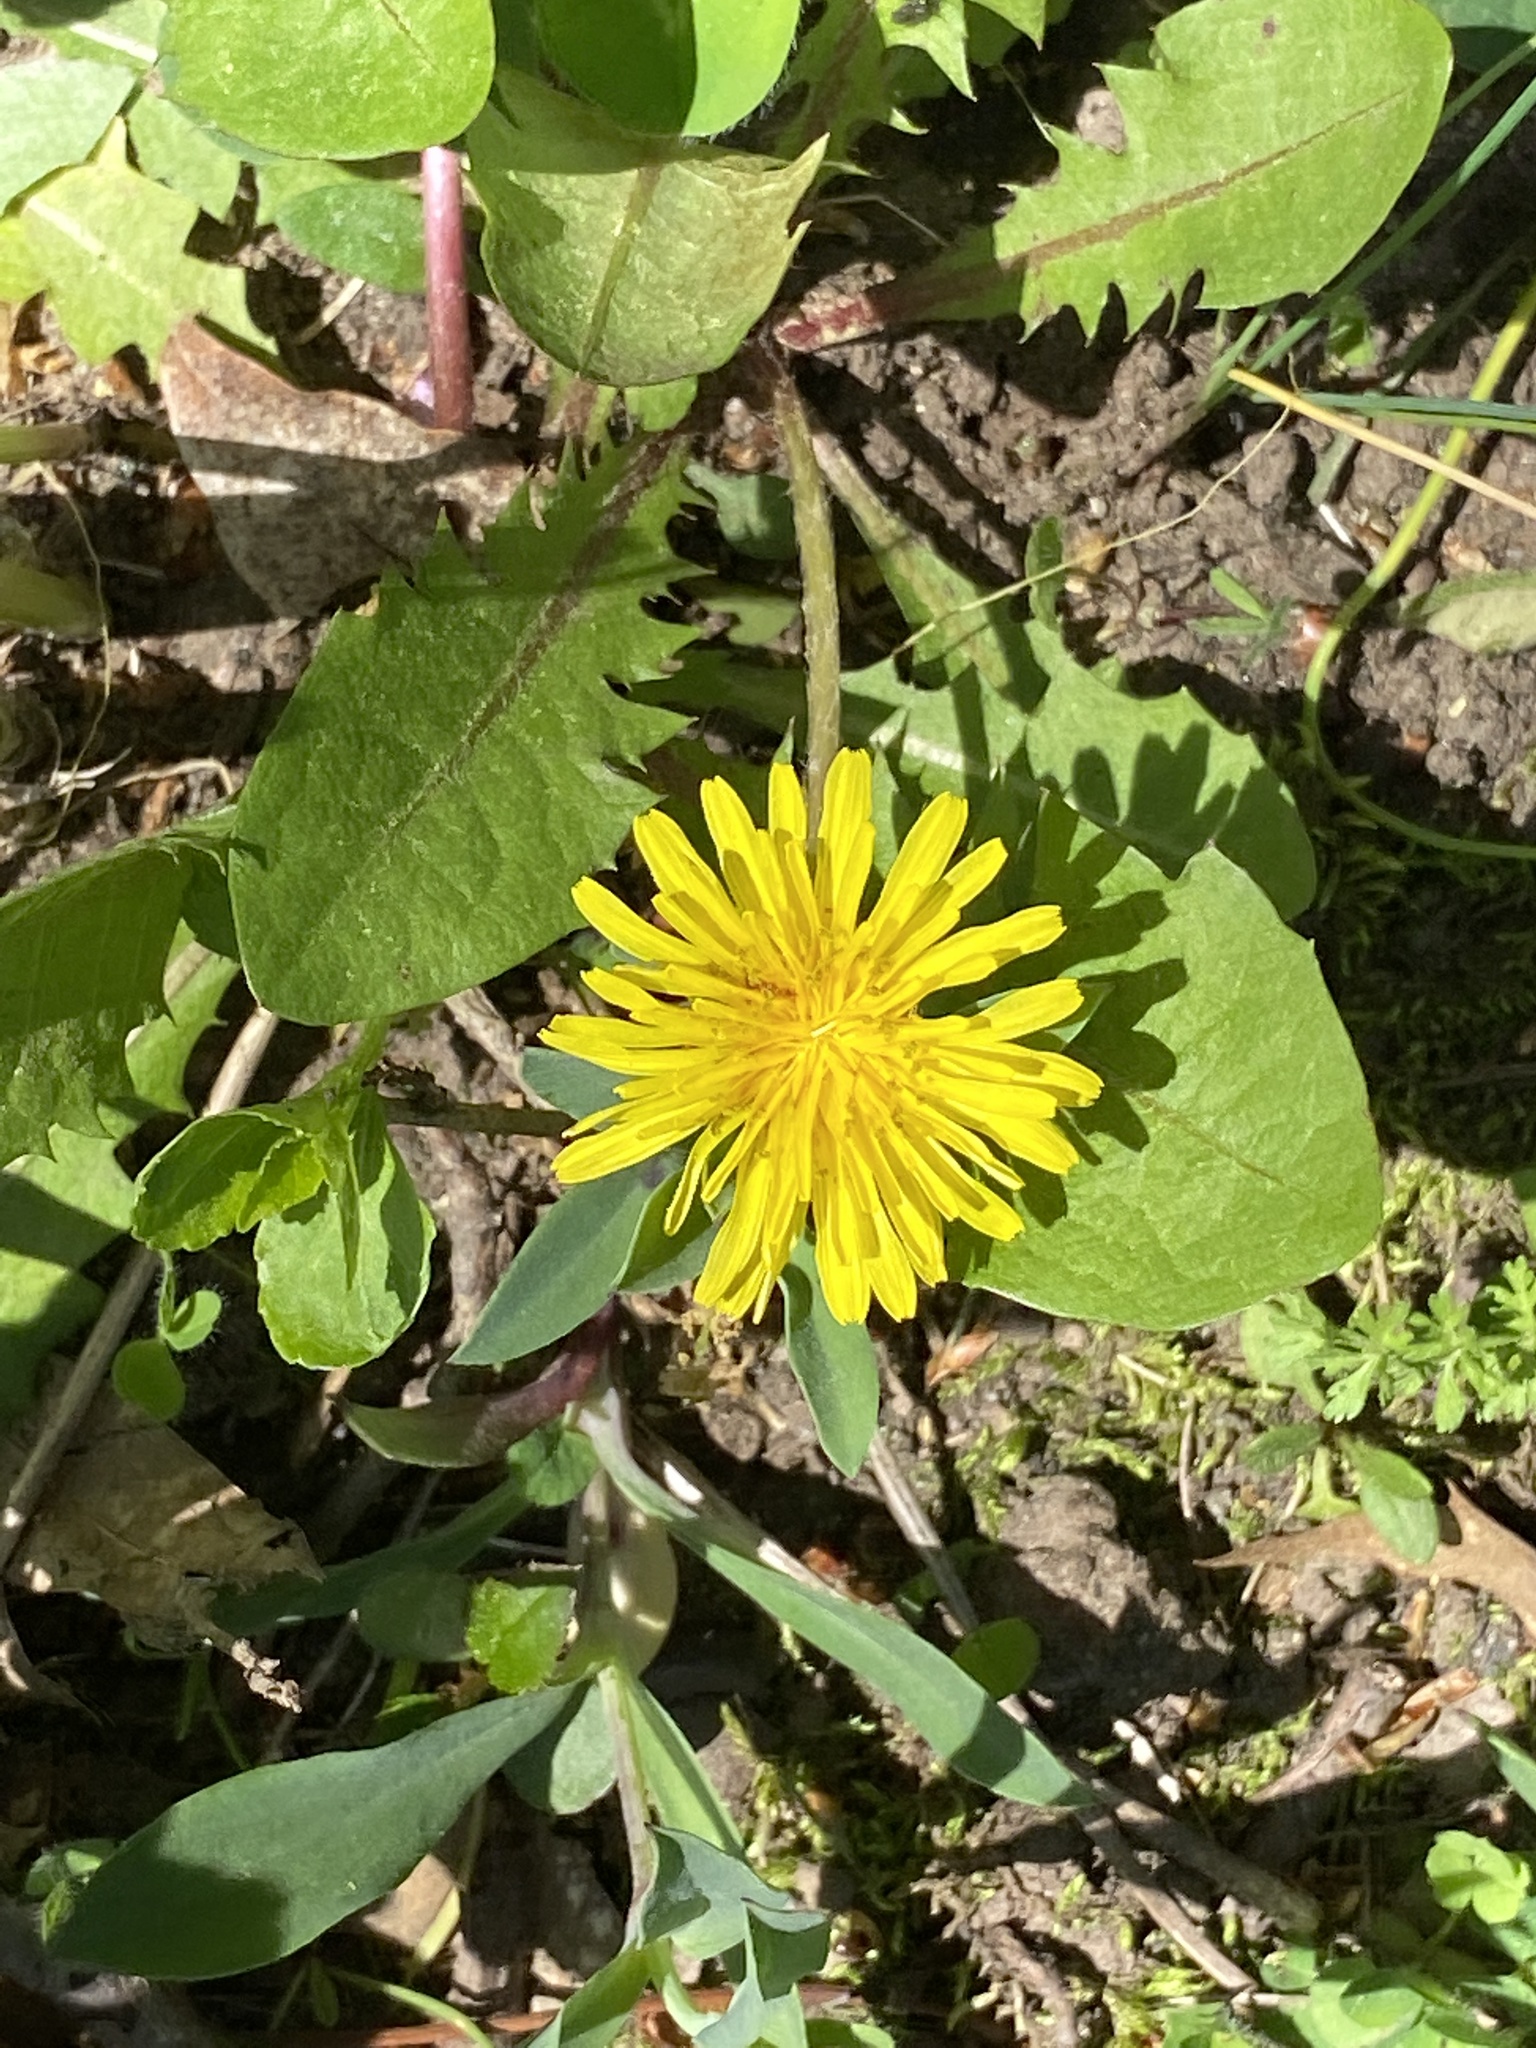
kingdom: Plantae
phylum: Tracheophyta
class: Magnoliopsida
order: Asterales
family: Asteraceae
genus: Taraxacum
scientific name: Taraxacum officinale
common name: Common dandelion
